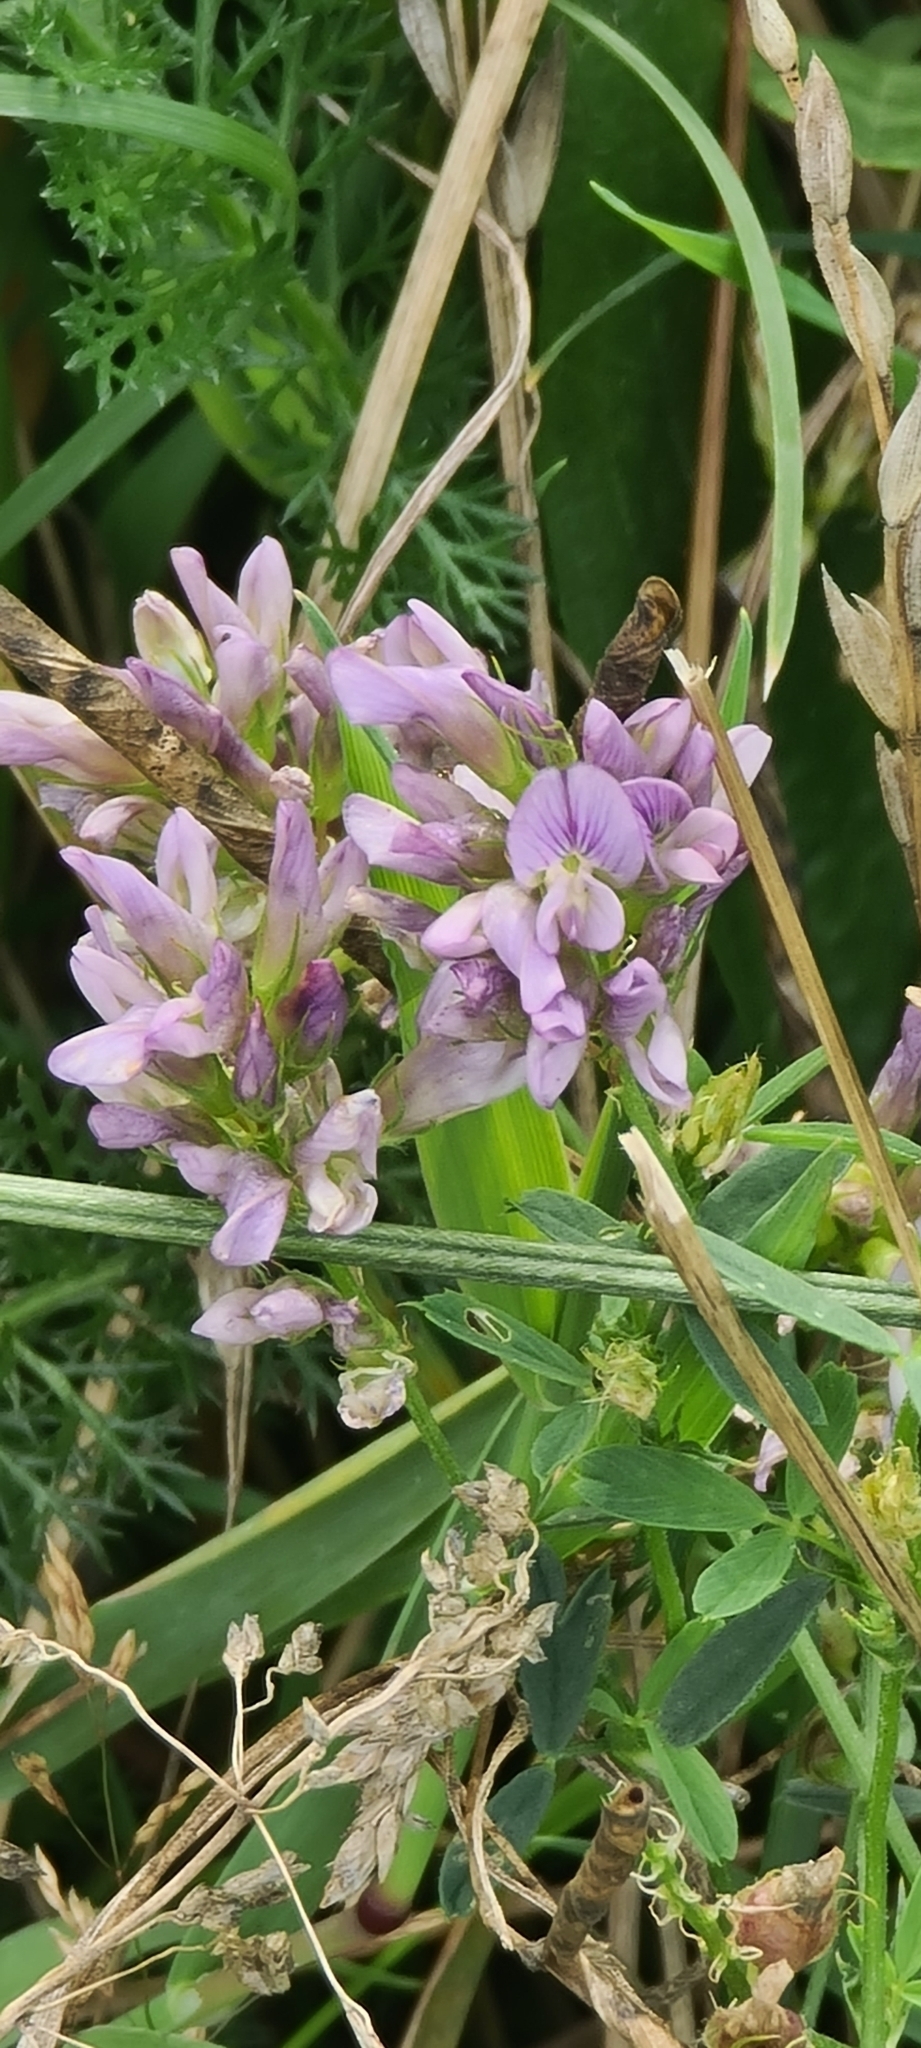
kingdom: Plantae
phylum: Tracheophyta
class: Magnoliopsida
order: Fabales
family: Fabaceae
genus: Medicago
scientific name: Medicago sativa
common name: Alfalfa
